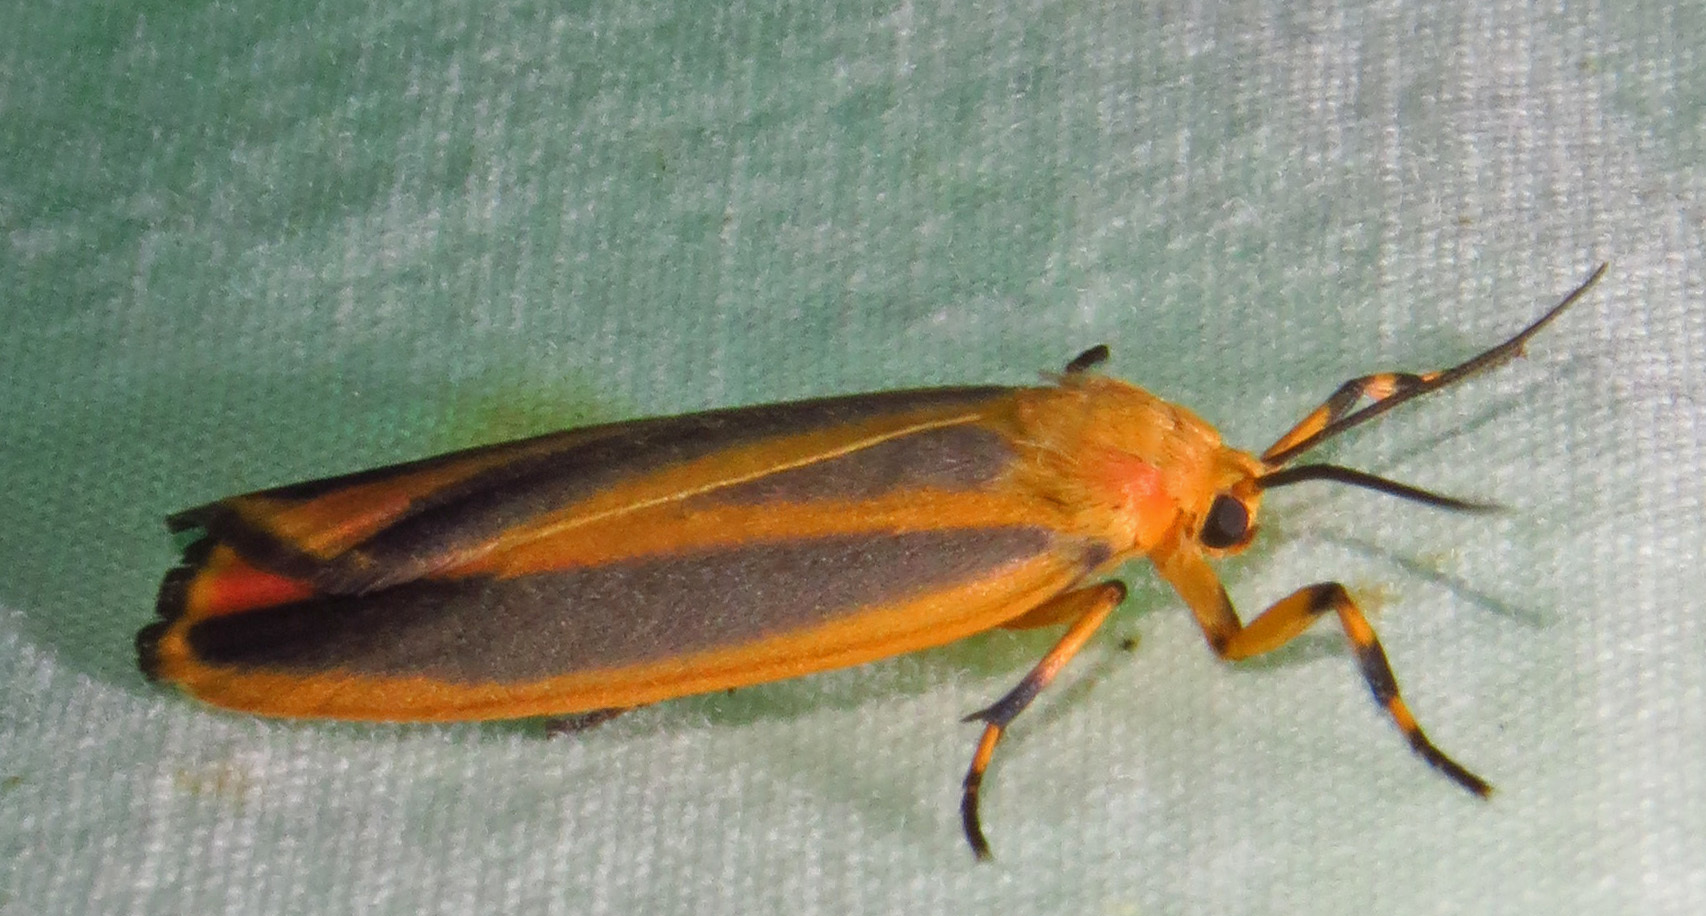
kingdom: Animalia
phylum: Arthropoda
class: Insecta
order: Lepidoptera
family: Erebidae
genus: Hypoprepia
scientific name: Hypoprepia fucosa
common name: Painted lichen moth
